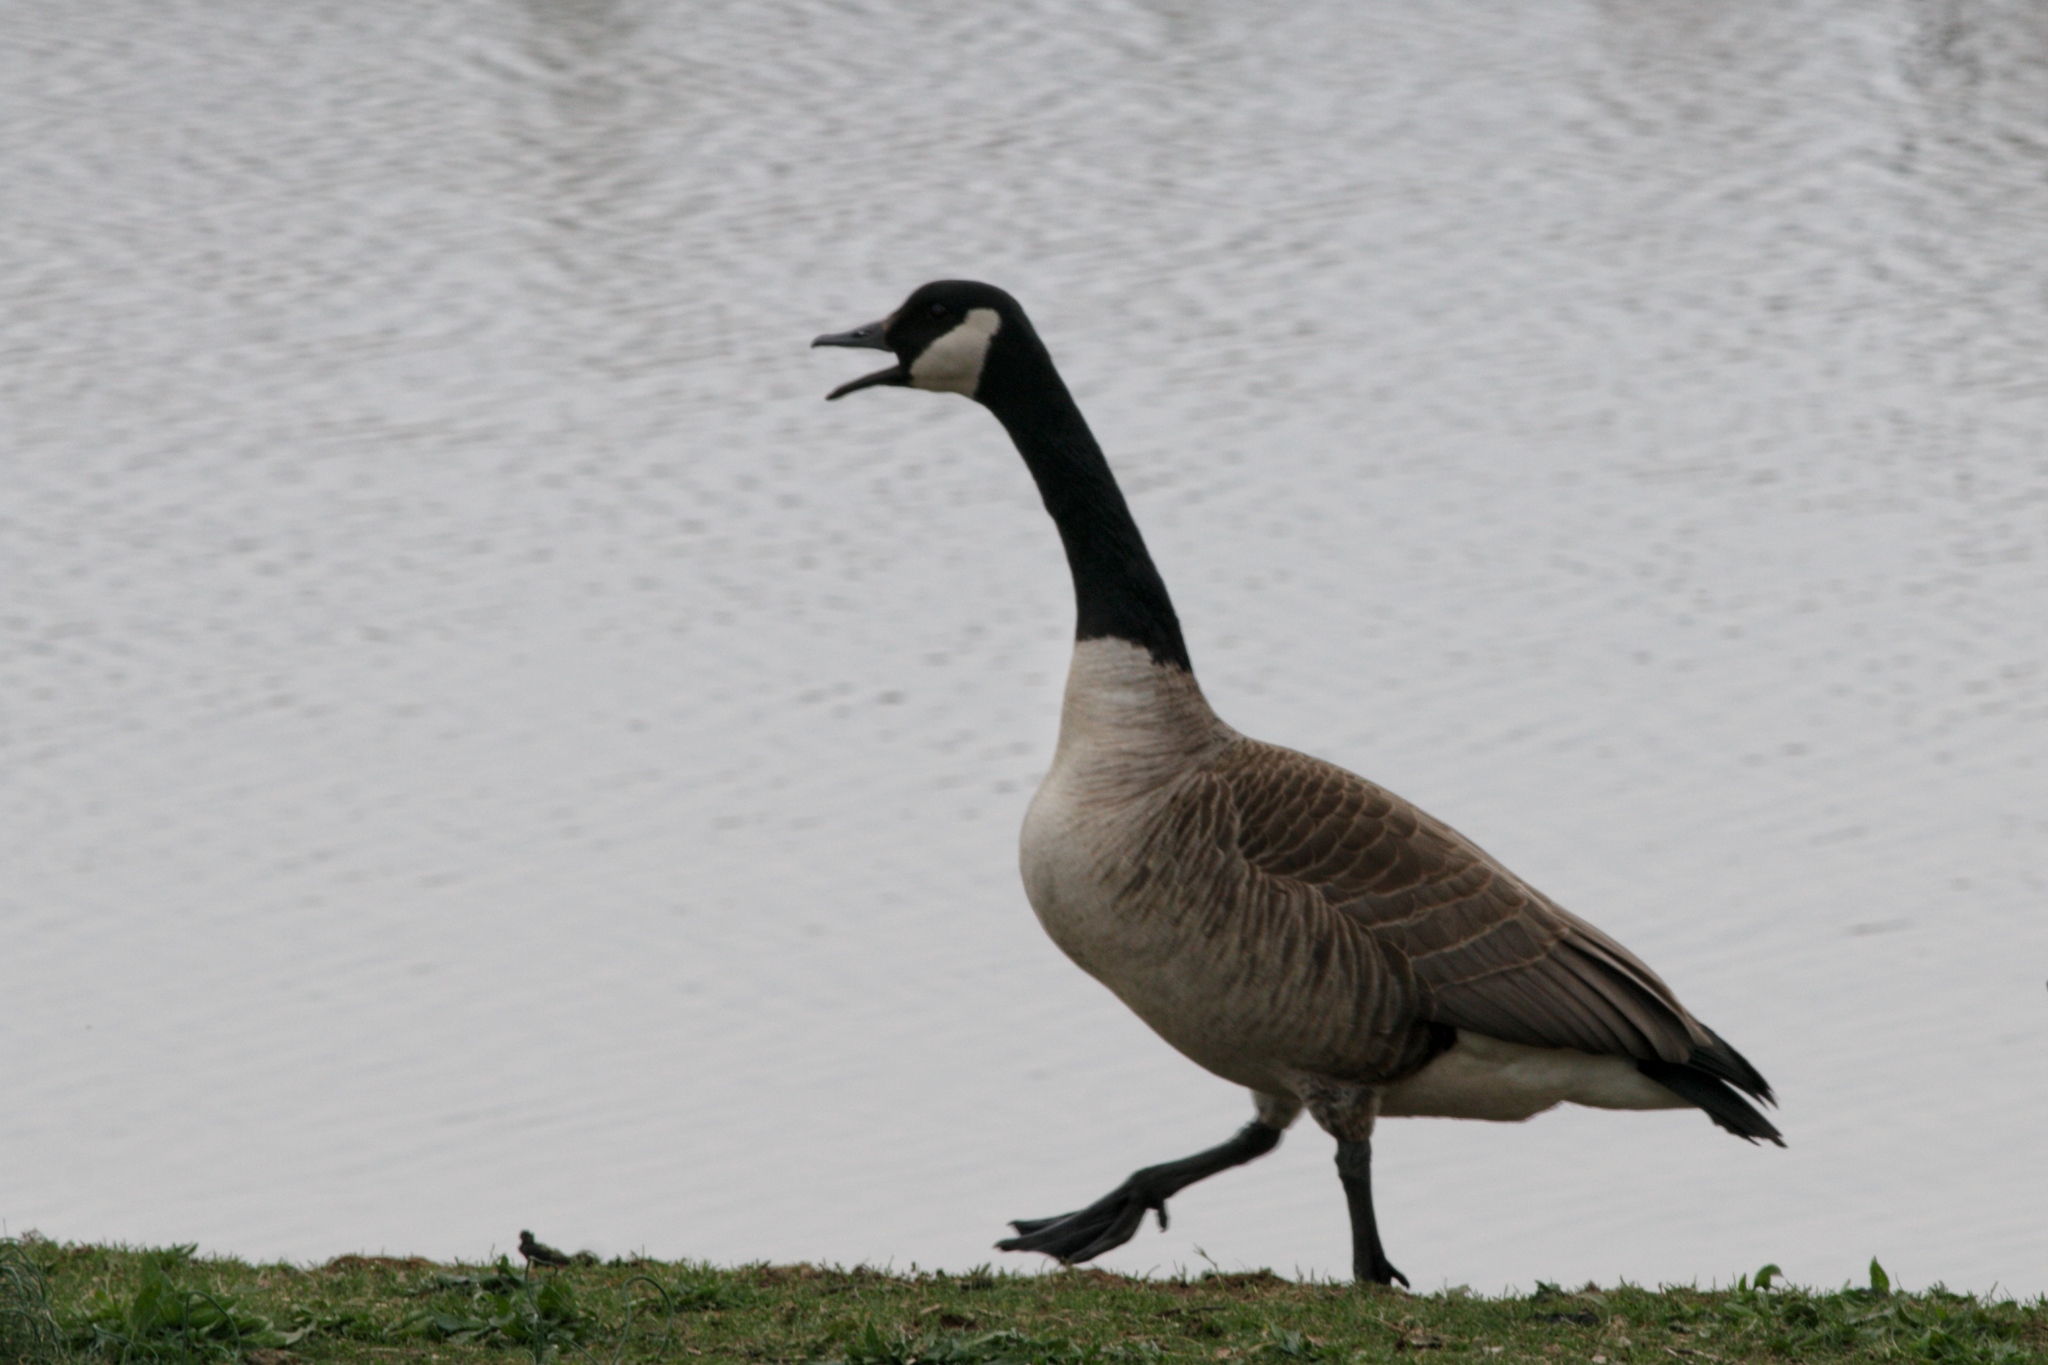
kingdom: Animalia
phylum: Chordata
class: Aves
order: Anseriformes
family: Anatidae
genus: Branta
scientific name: Branta canadensis
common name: Canada goose
